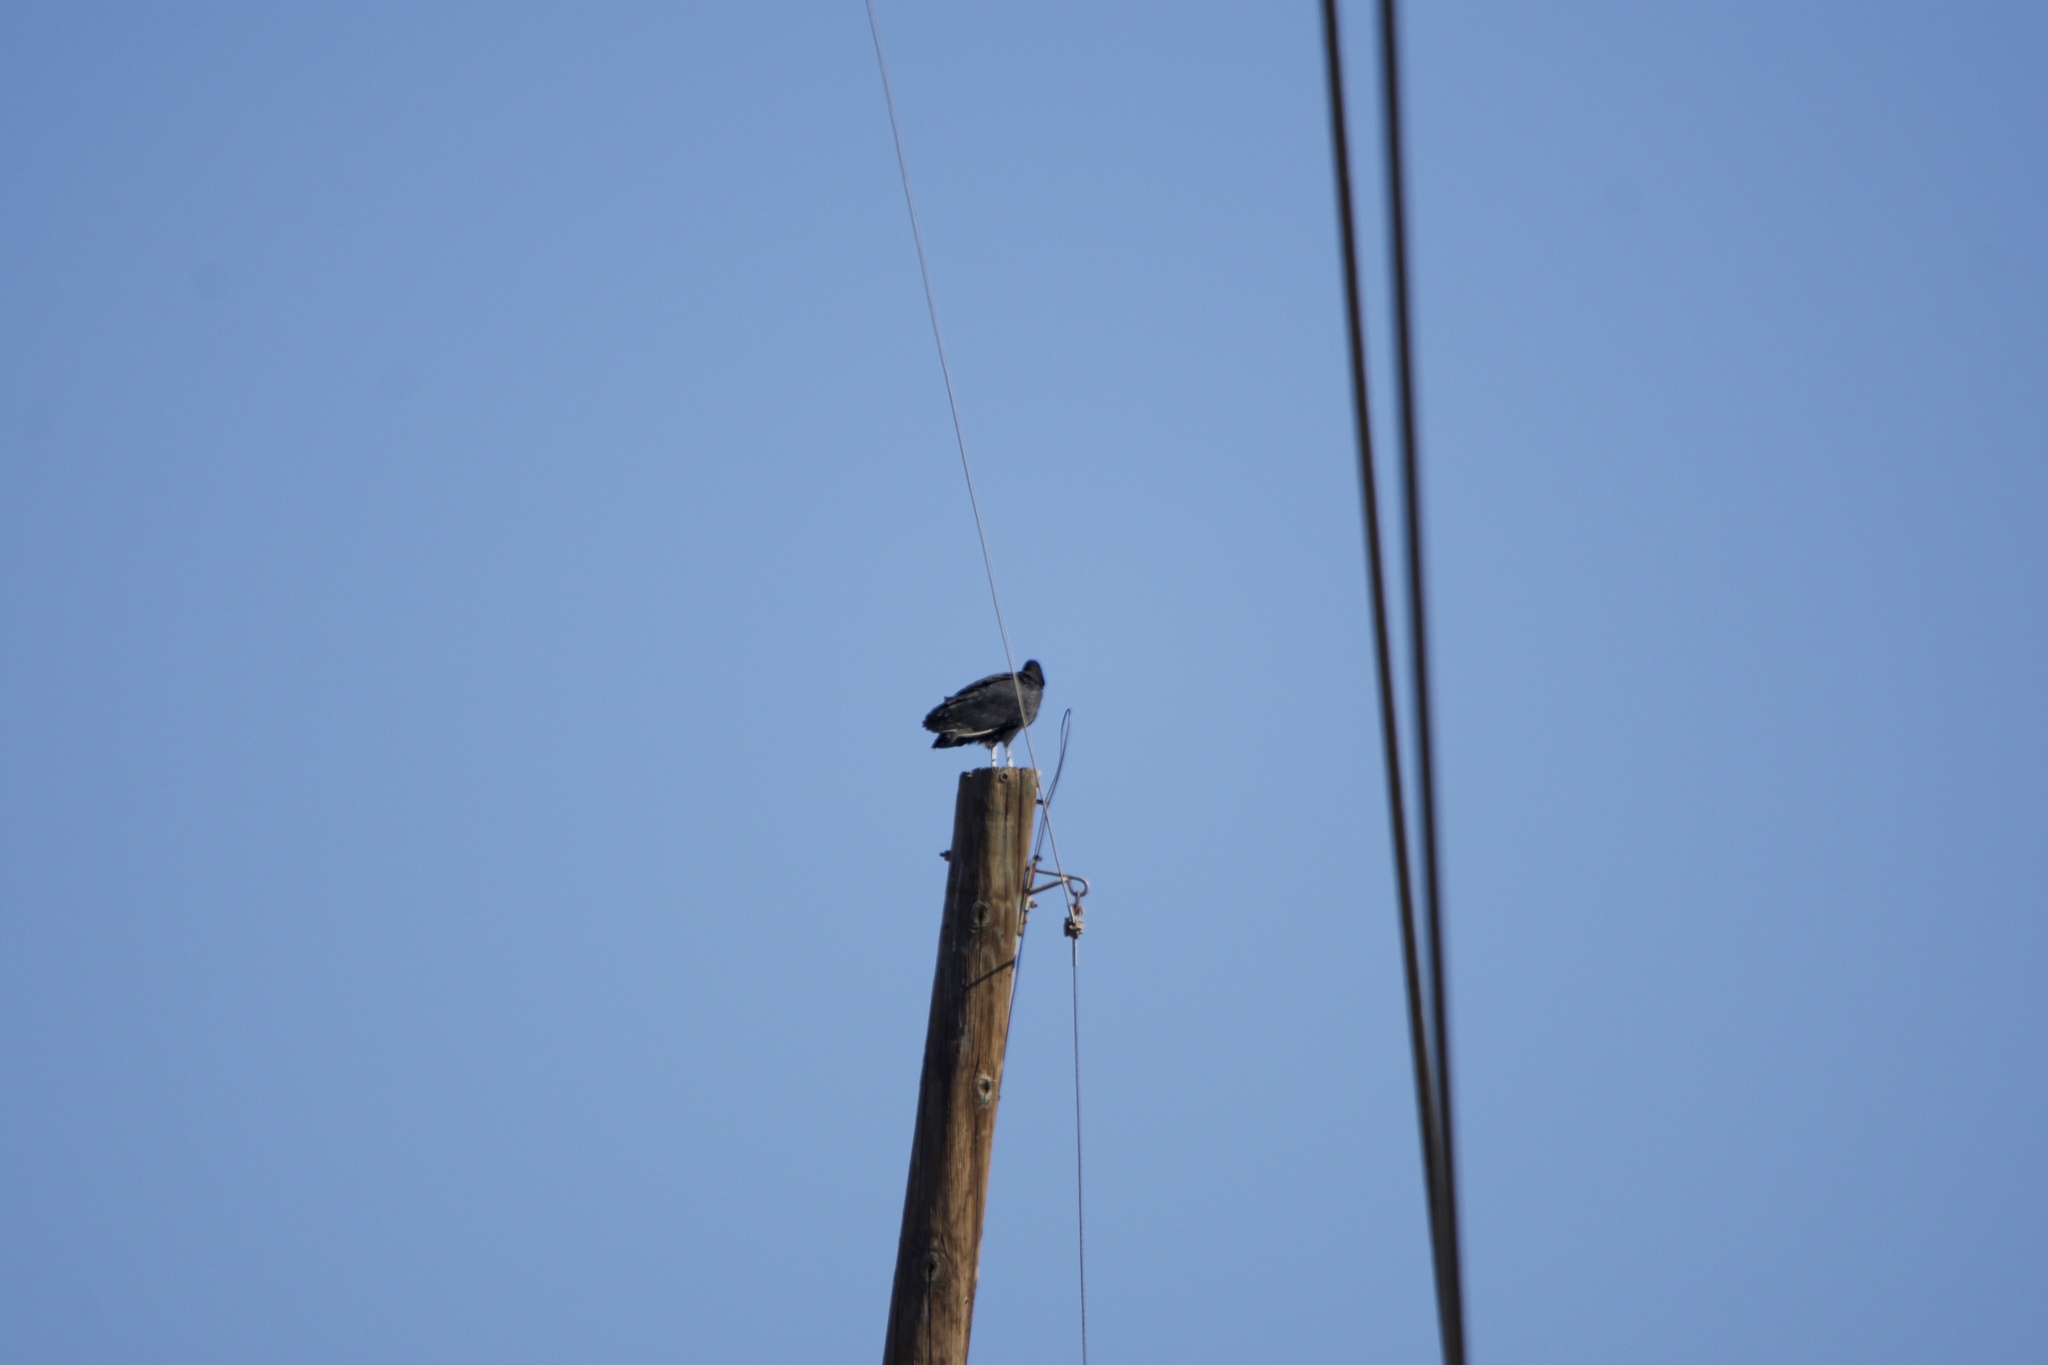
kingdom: Animalia
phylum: Chordata
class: Aves
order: Accipitriformes
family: Cathartidae
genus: Coragyps
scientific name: Coragyps atratus
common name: Black vulture
